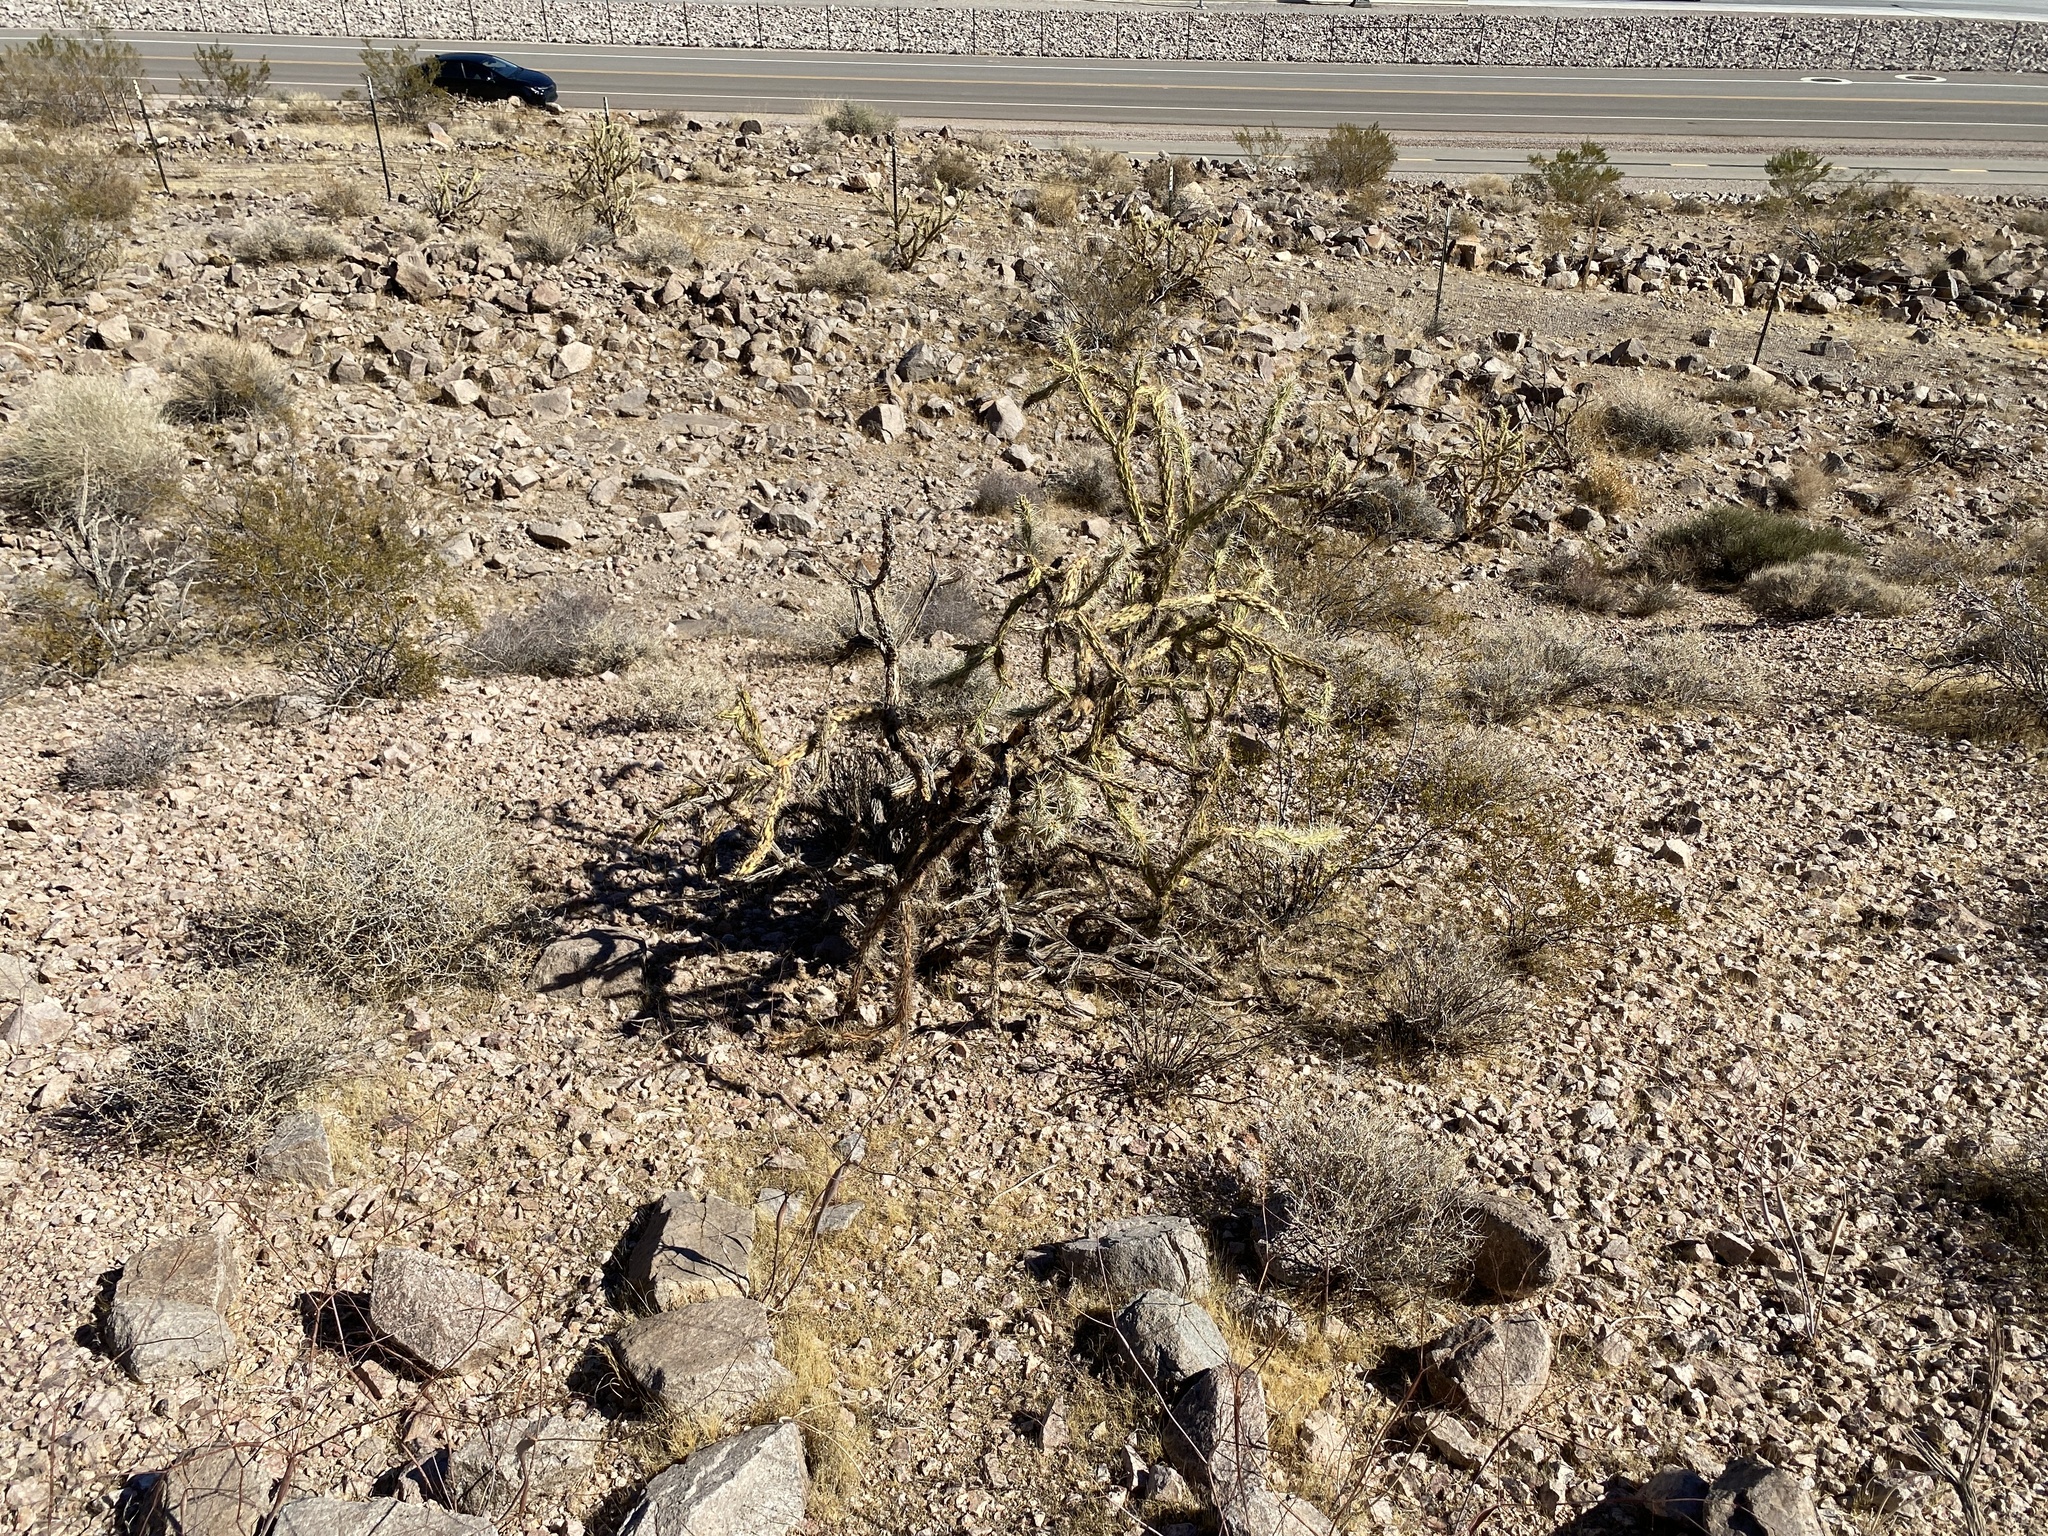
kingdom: Plantae
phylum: Tracheophyta
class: Magnoliopsida
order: Caryophyllales
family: Cactaceae
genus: Cylindropuntia
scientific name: Cylindropuntia acanthocarpa
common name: Buckhorn cholla
